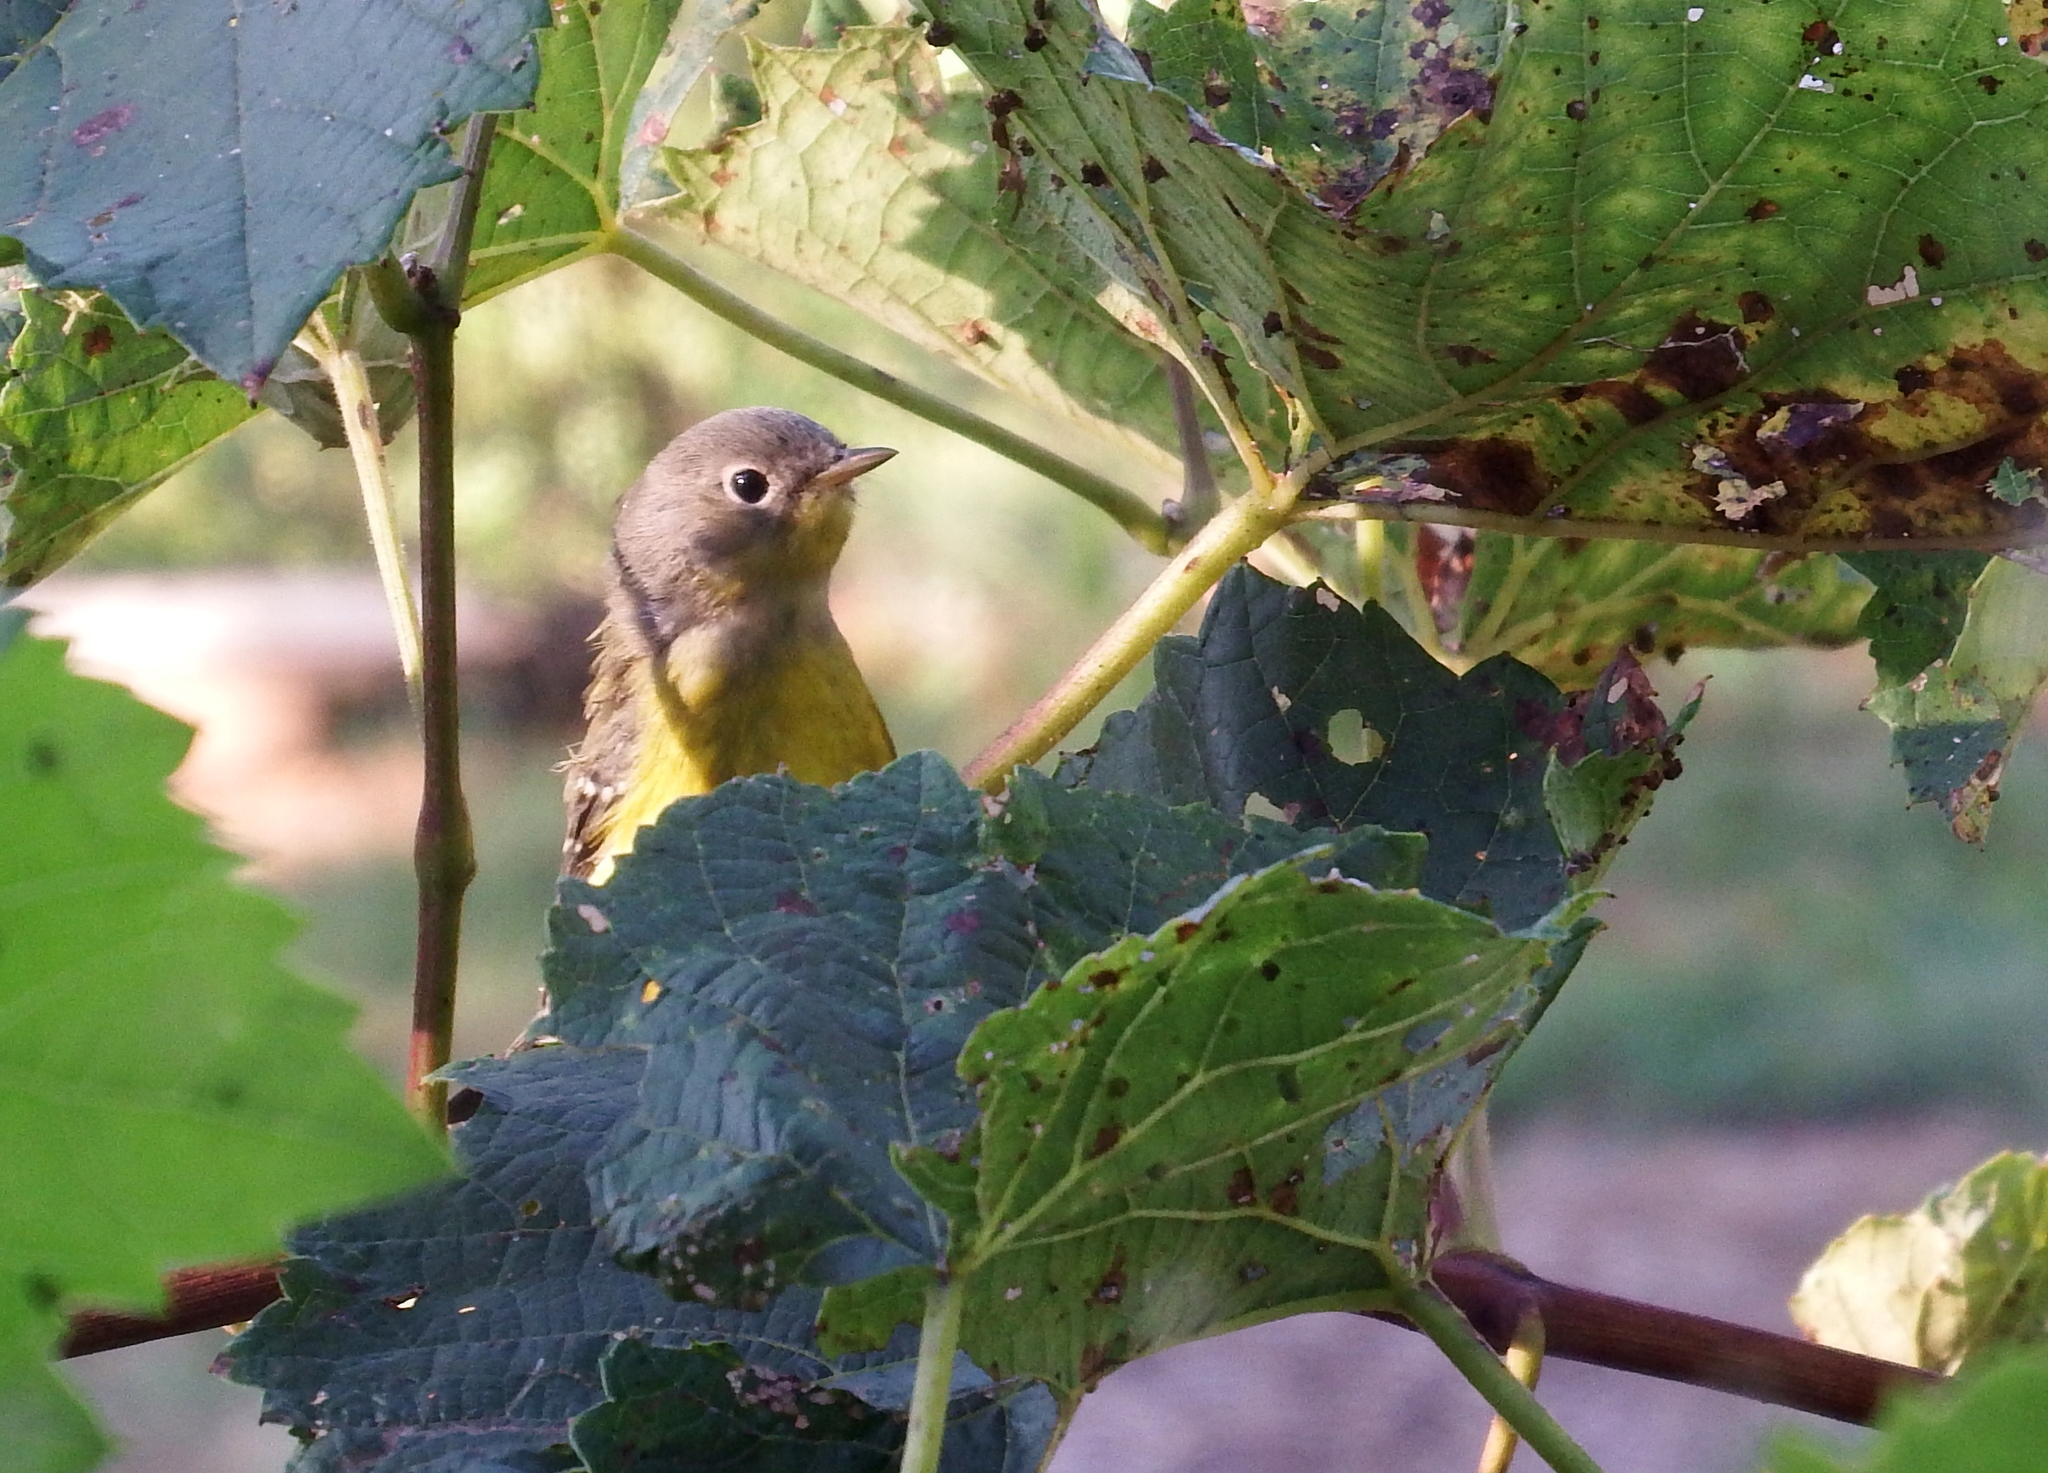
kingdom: Animalia
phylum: Chordata
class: Aves
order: Passeriformes
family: Parulidae
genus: Setophaga
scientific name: Setophaga magnolia
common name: Magnolia warbler
